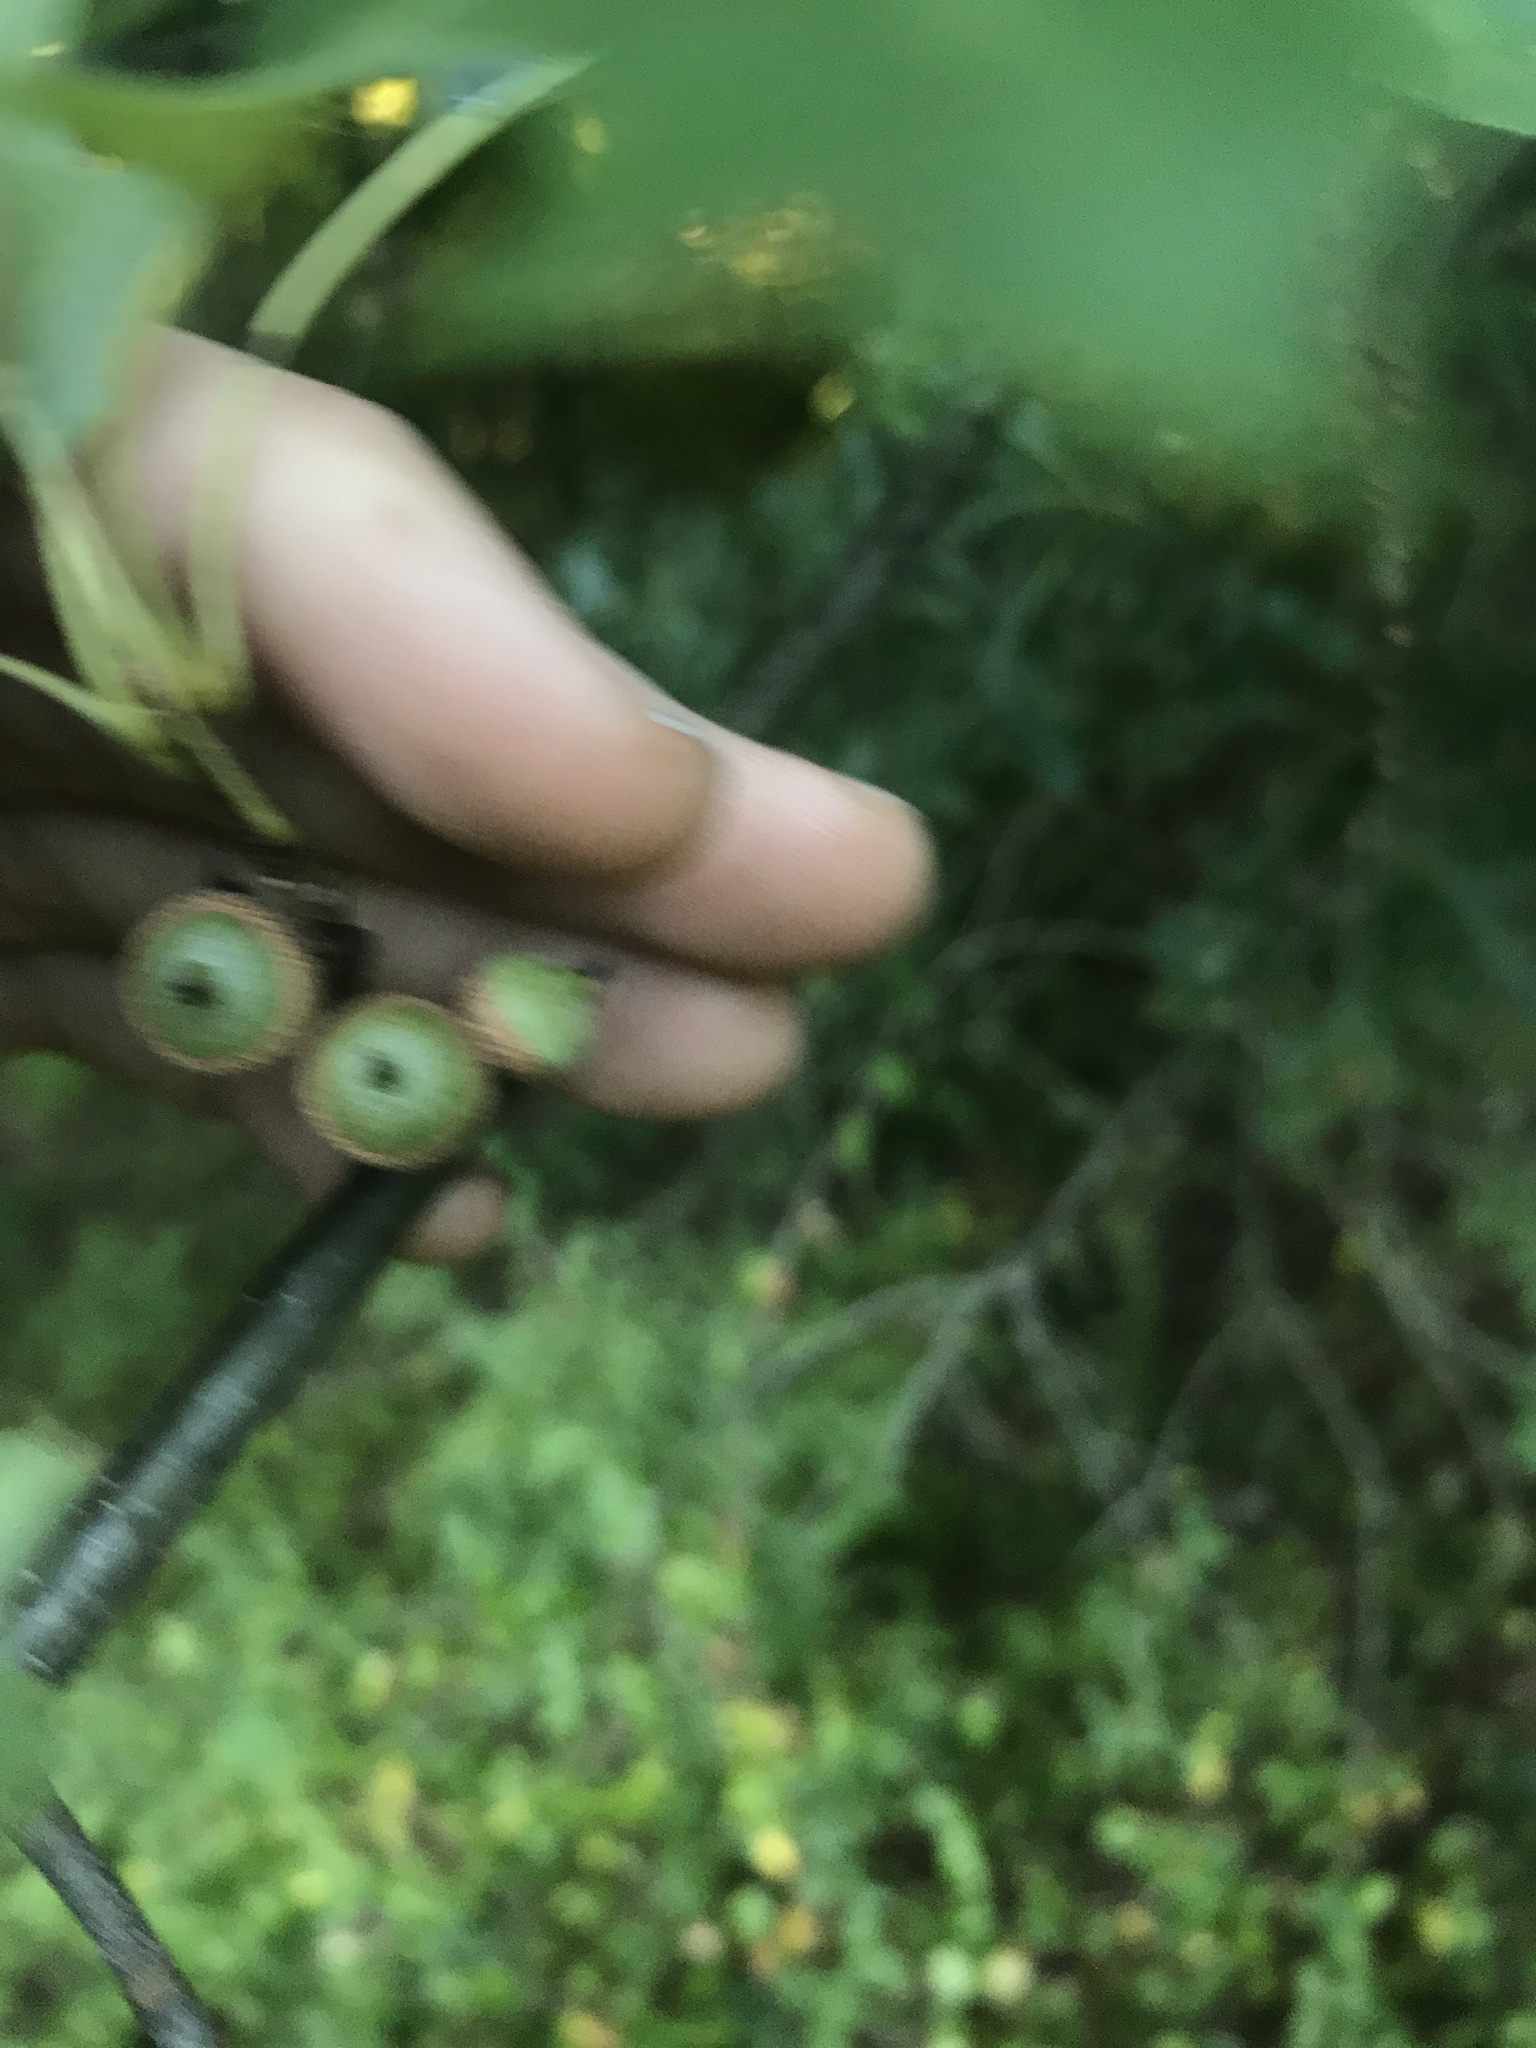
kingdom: Plantae
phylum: Tracheophyta
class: Magnoliopsida
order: Fagales
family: Fagaceae
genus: Quercus
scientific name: Quercus palustris
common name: Pin oak
